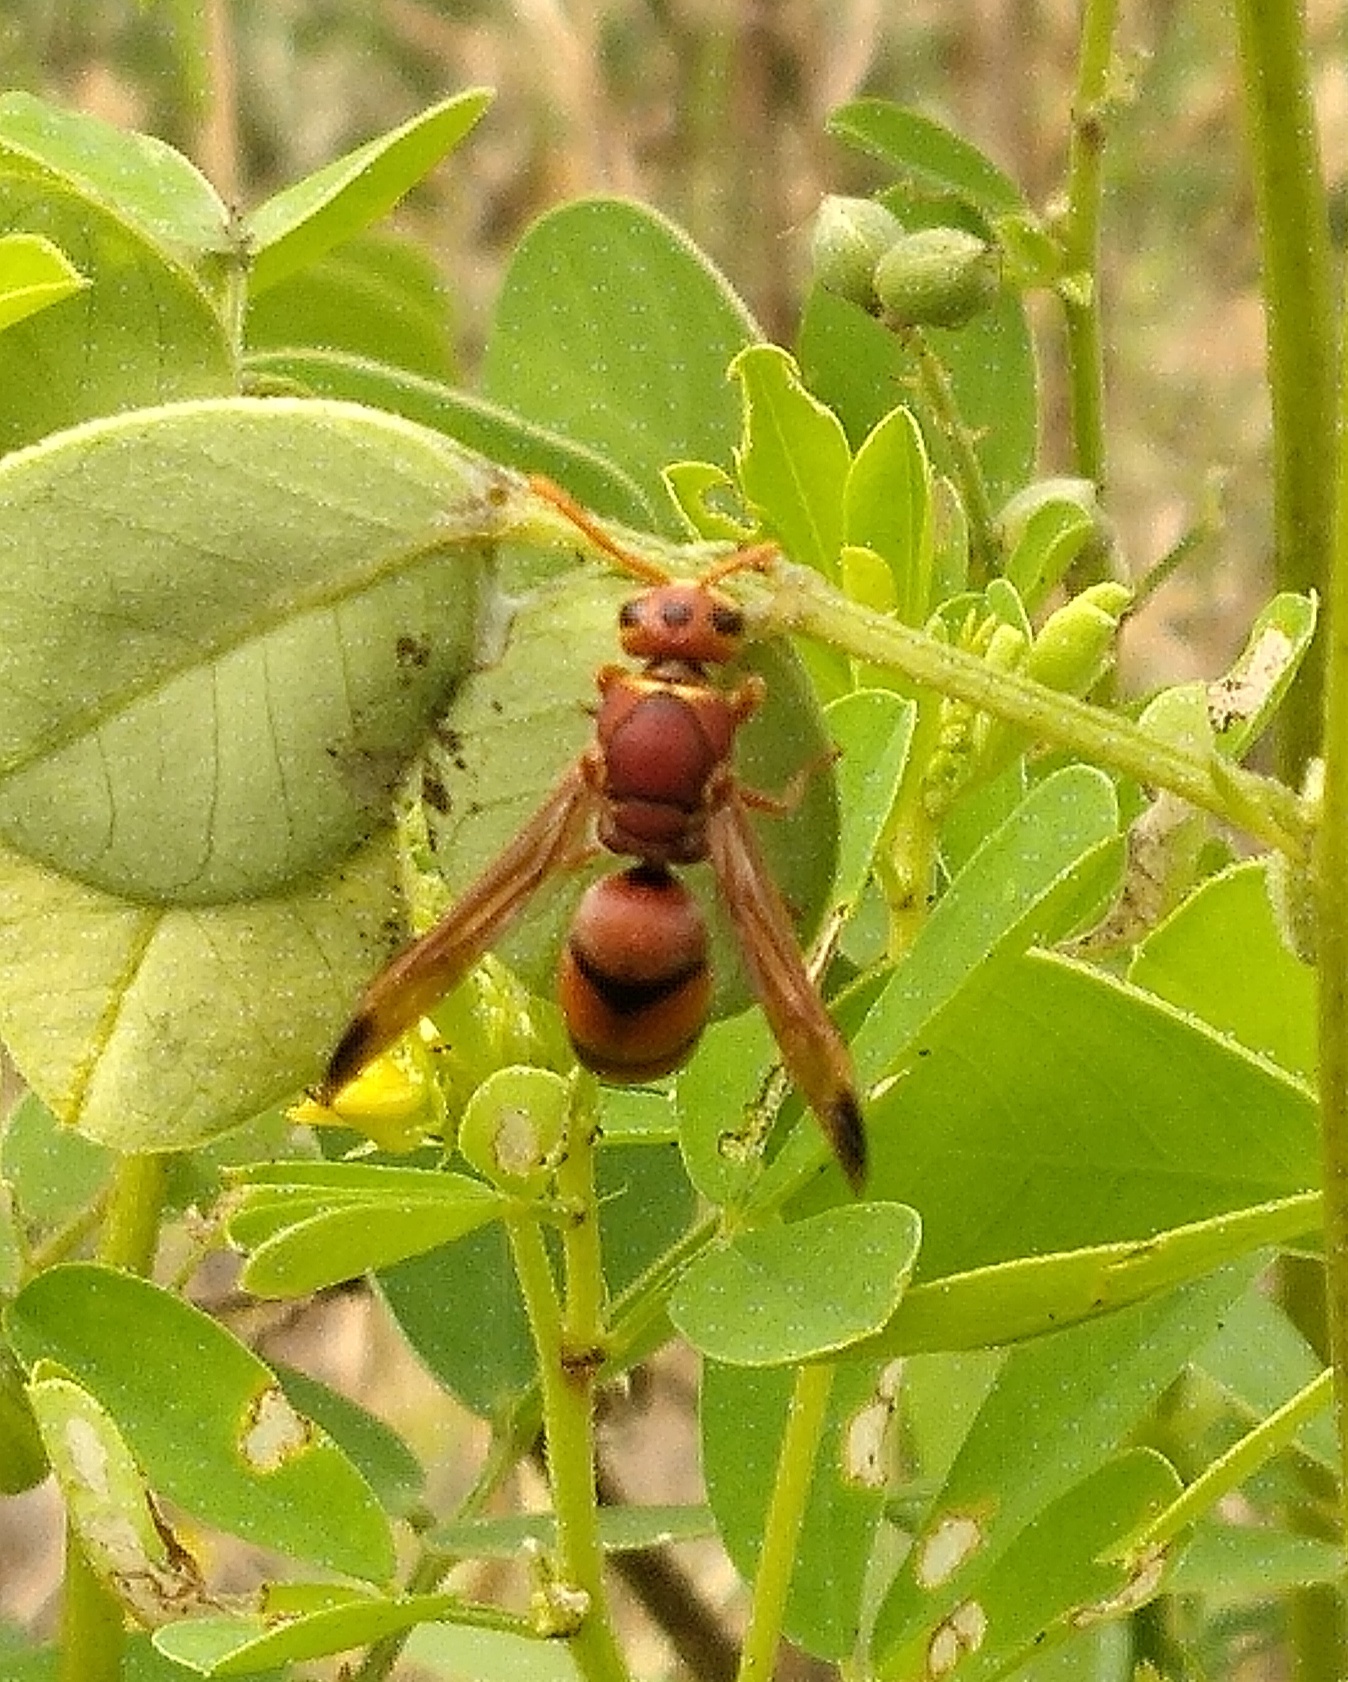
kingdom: Animalia
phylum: Arthropoda
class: Insecta
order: Hymenoptera
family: Eumenidae
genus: Antodynerus
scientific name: Antodynerus limbatus
